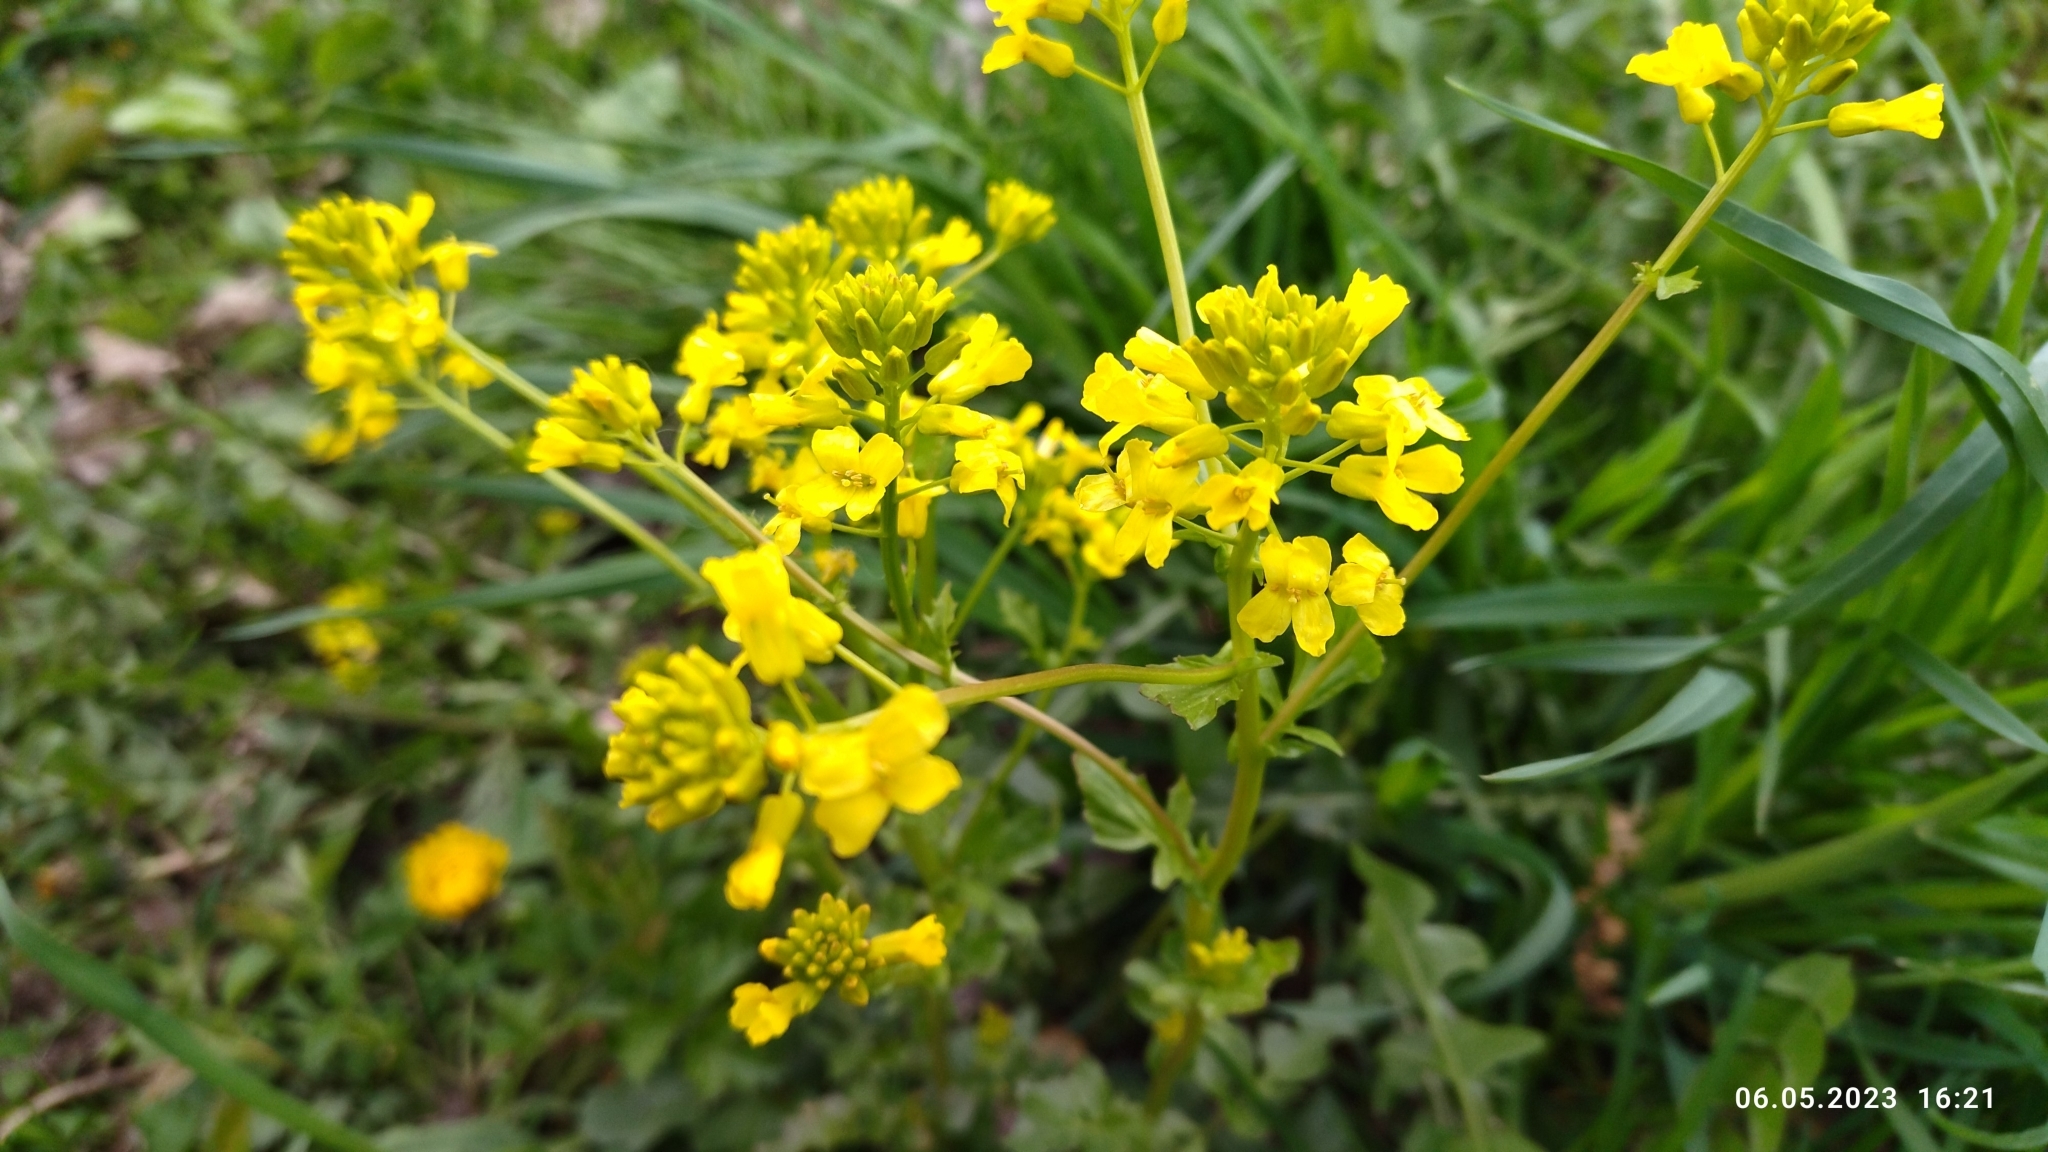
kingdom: Plantae
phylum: Tracheophyta
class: Magnoliopsida
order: Brassicales
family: Brassicaceae
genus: Barbarea
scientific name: Barbarea vulgaris
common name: Cressy-greens
